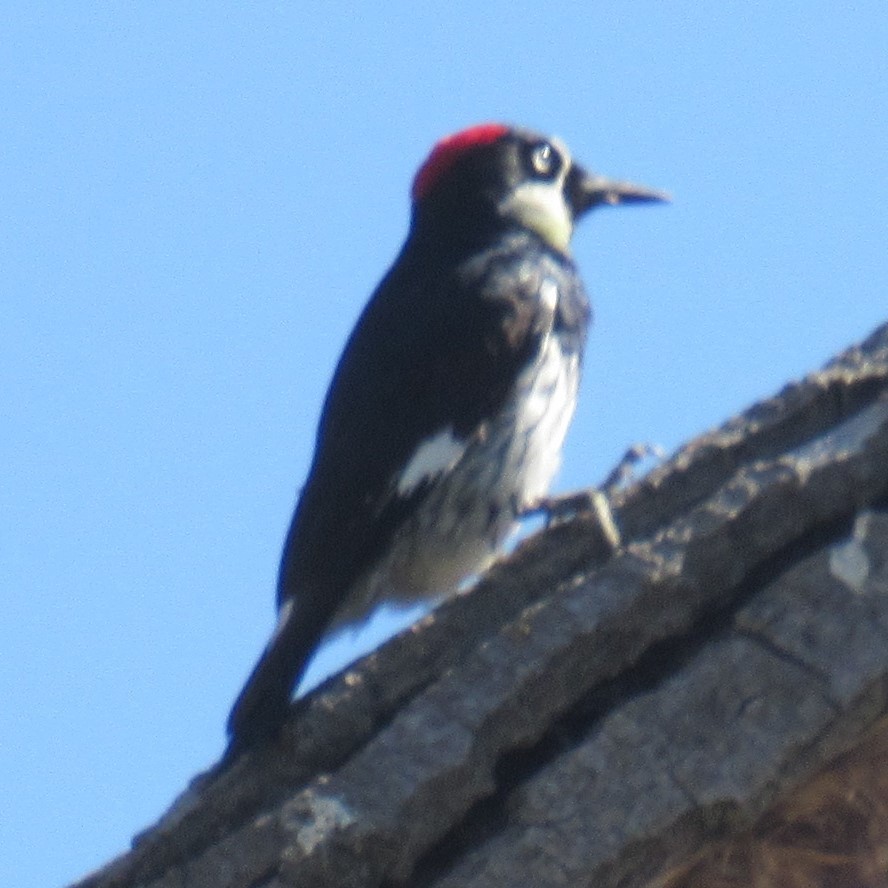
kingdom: Animalia
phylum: Chordata
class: Aves
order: Piciformes
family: Picidae
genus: Melanerpes
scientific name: Melanerpes formicivorus
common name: Acorn woodpecker
